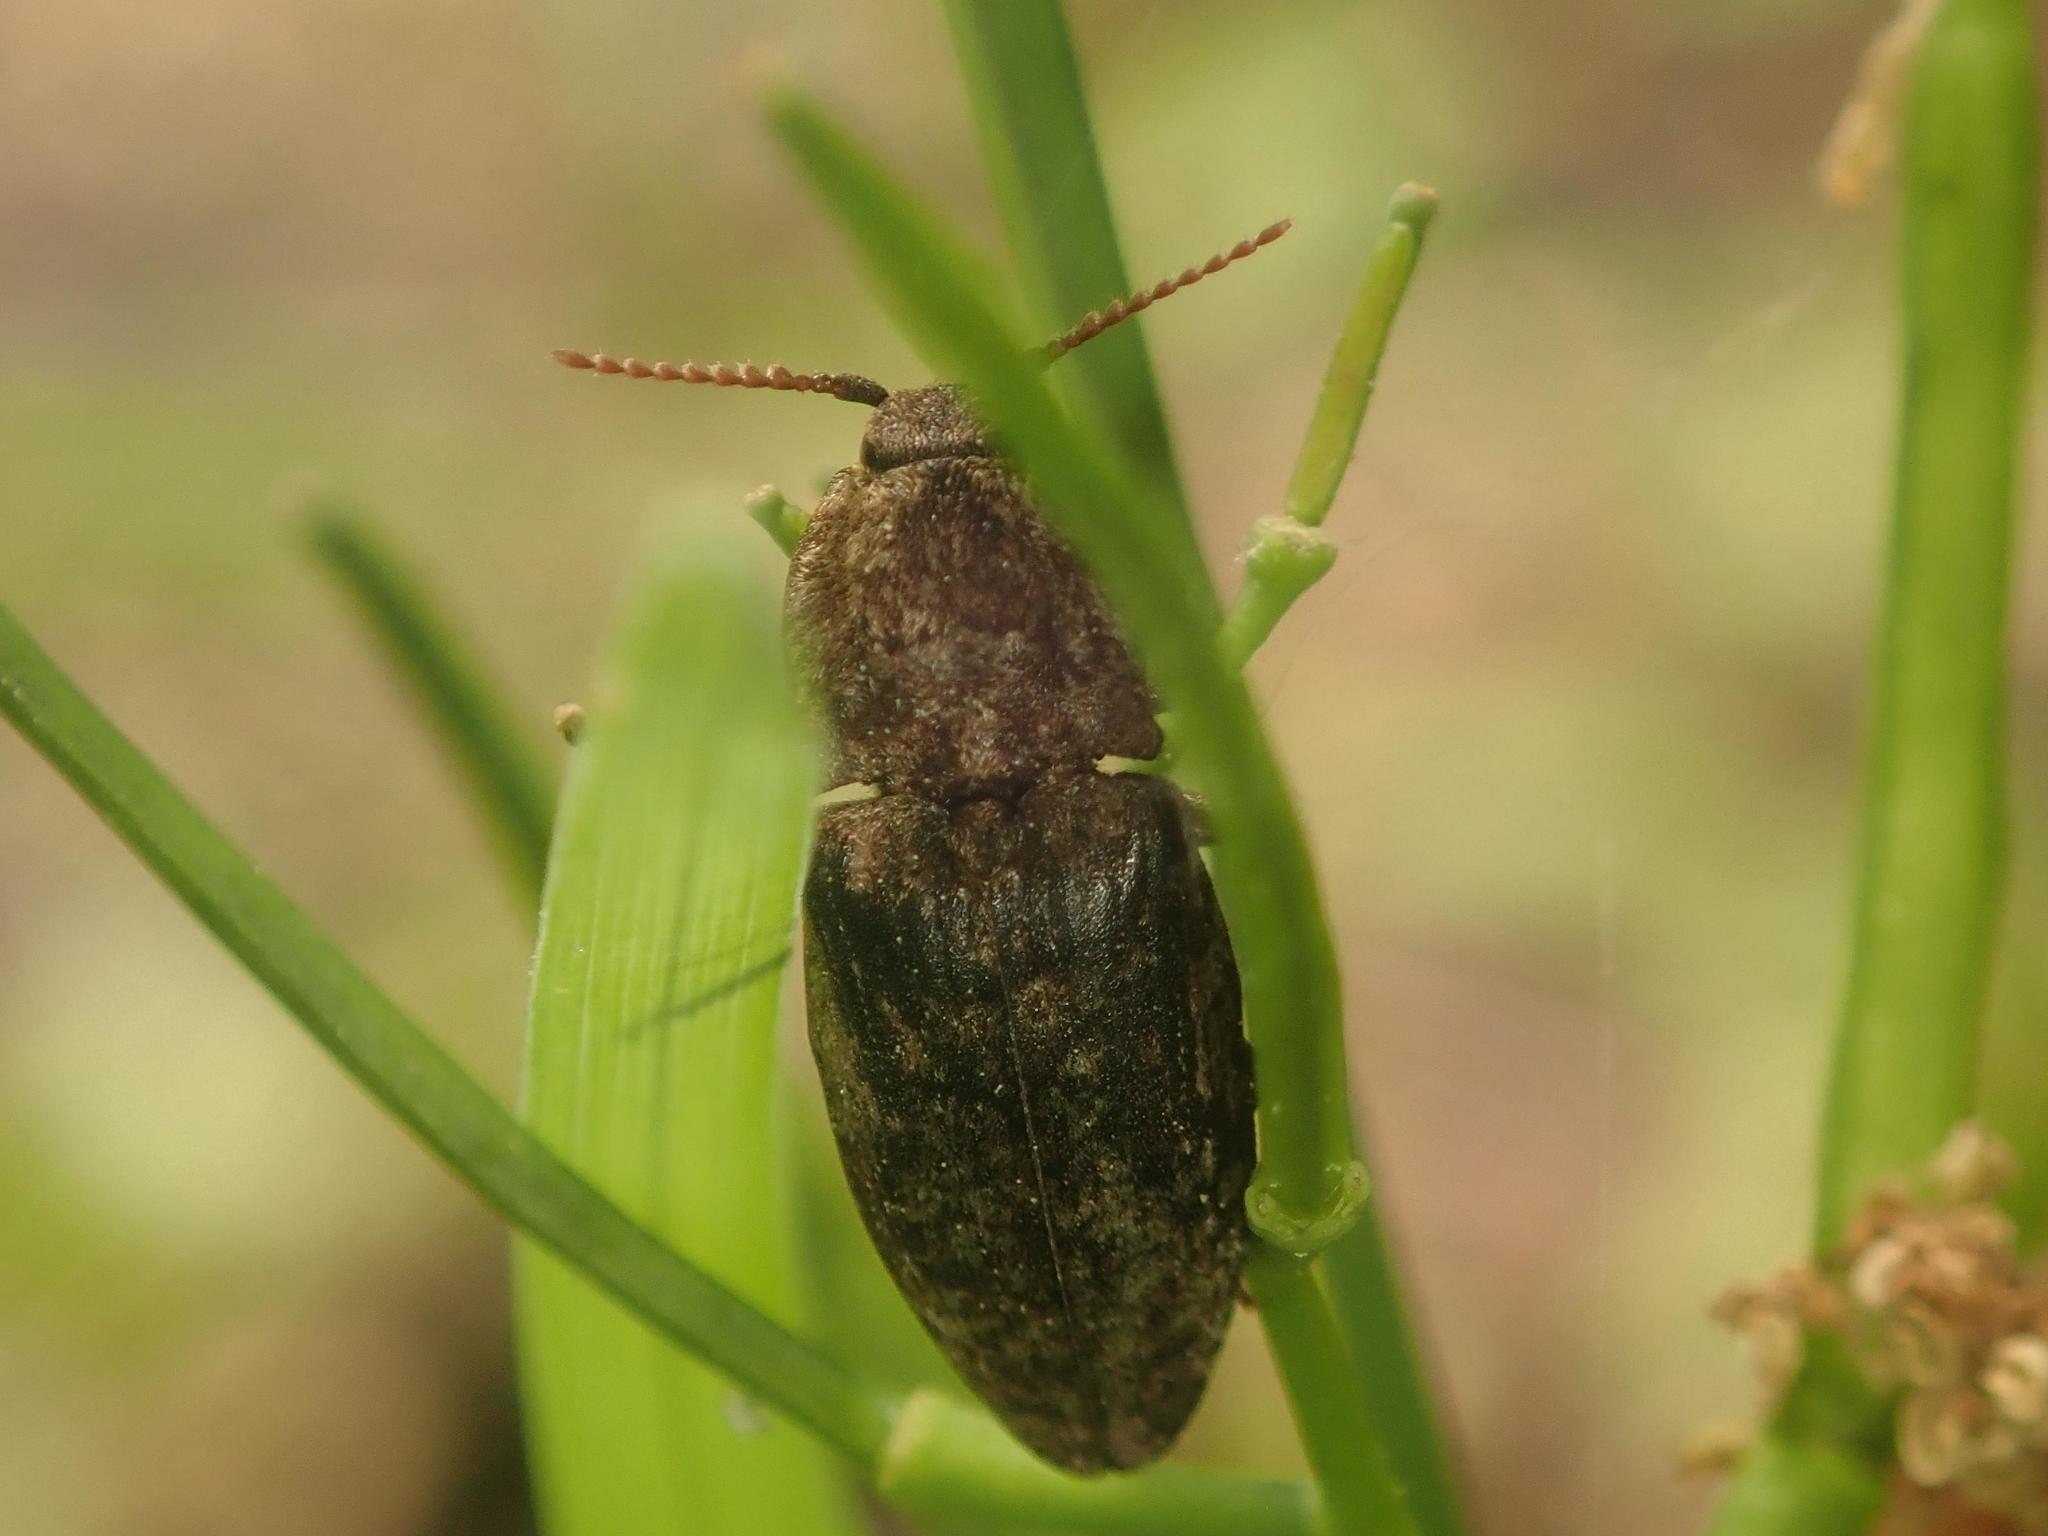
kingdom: Animalia
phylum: Arthropoda
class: Insecta
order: Coleoptera
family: Elateridae
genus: Agrypnus
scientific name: Agrypnus murinus
